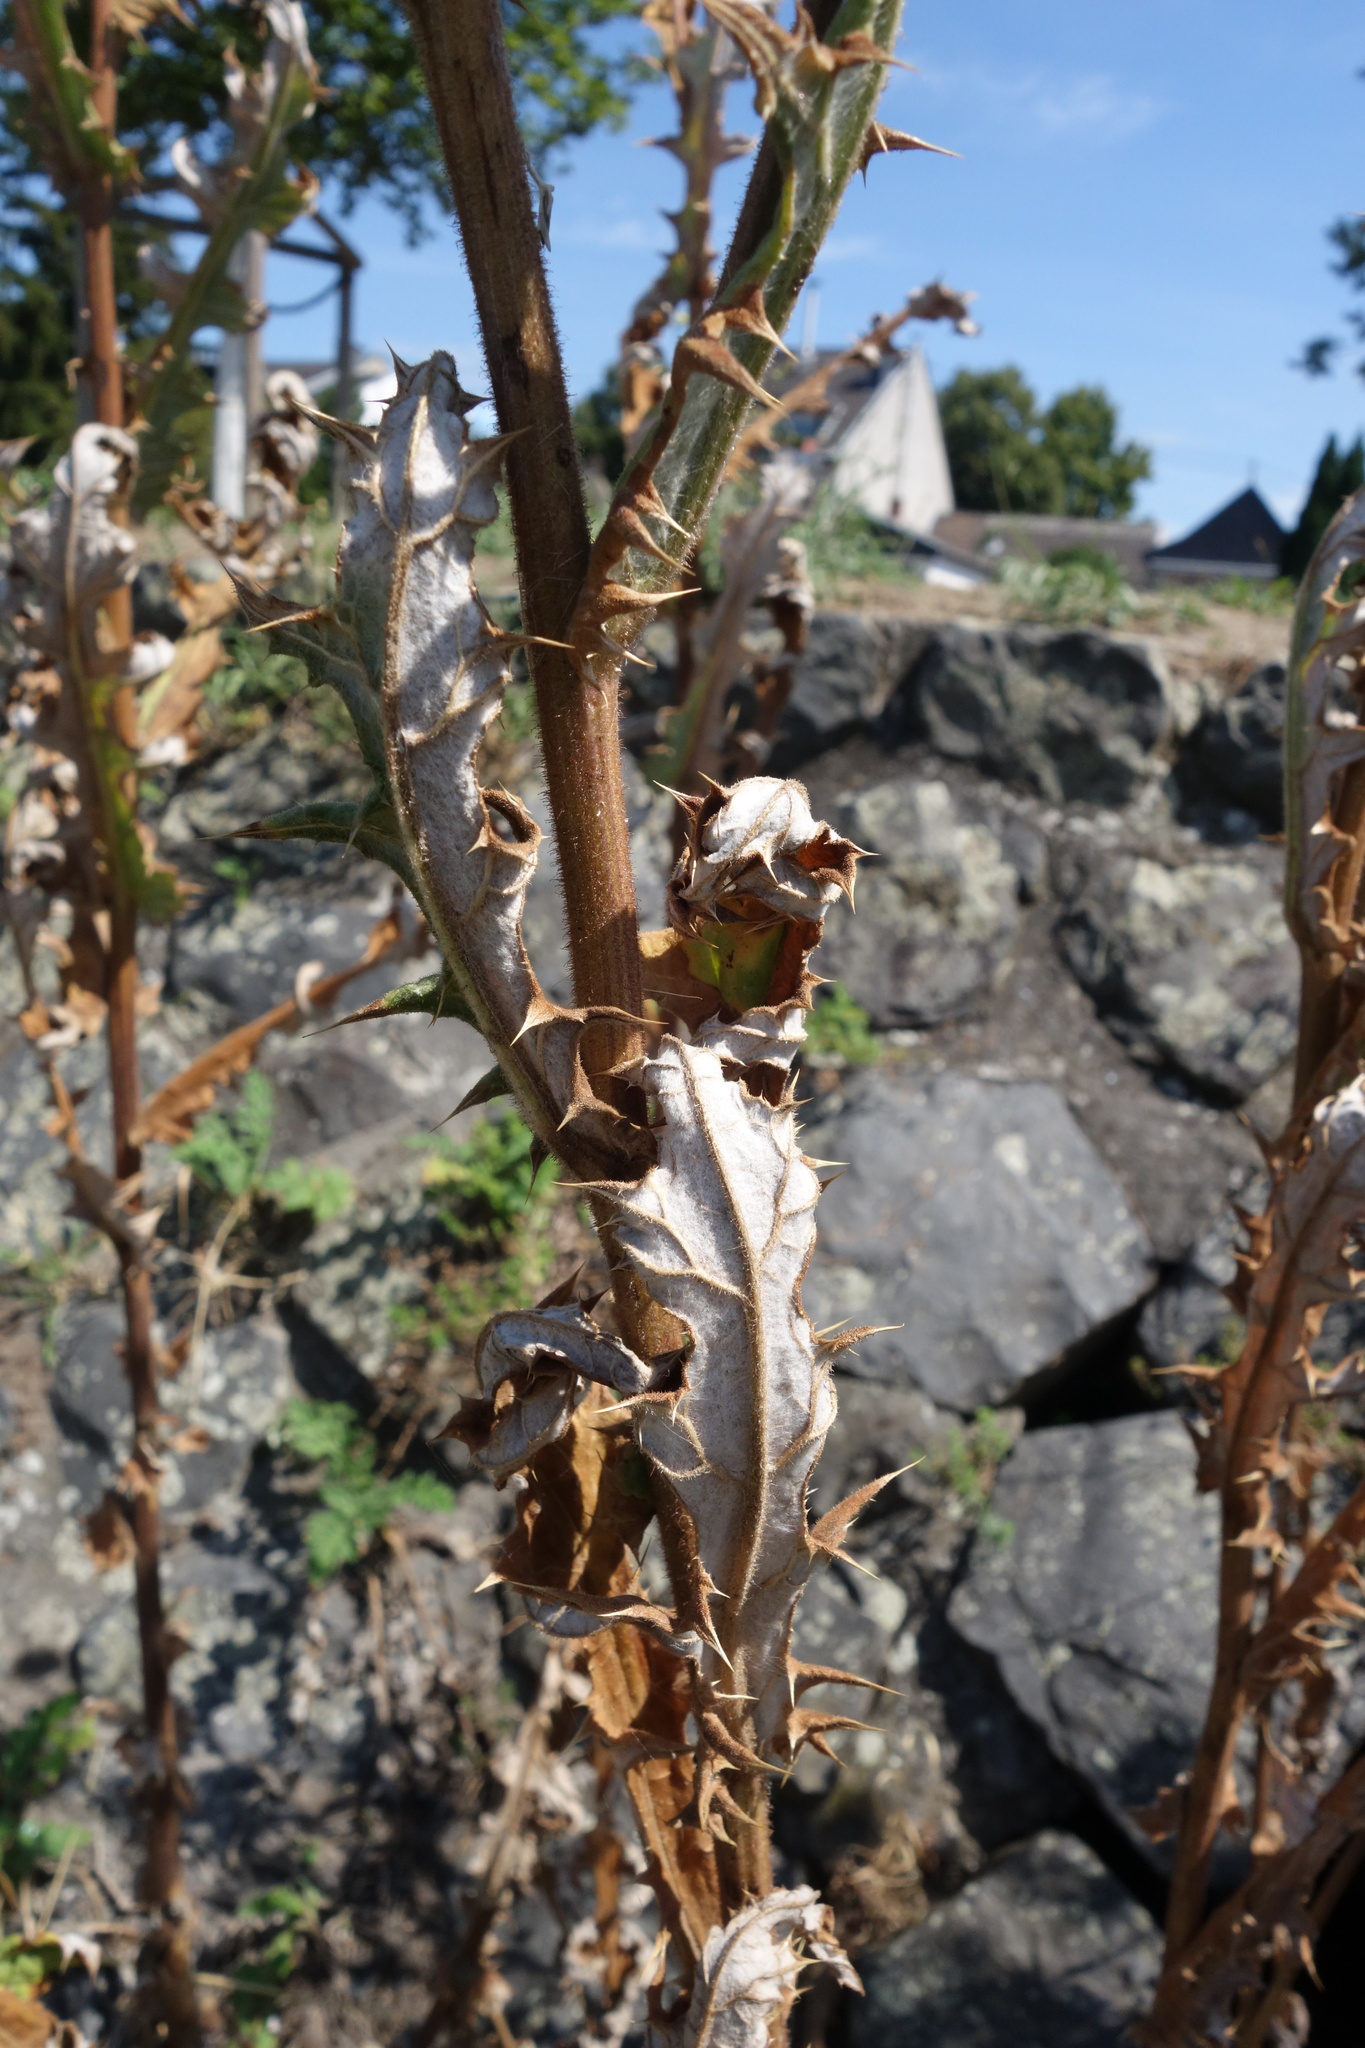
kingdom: Plantae
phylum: Tracheophyta
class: Magnoliopsida
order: Asterales
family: Asteraceae
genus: Echinops
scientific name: Echinops sphaerocephalus
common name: Glandular globe-thistle
